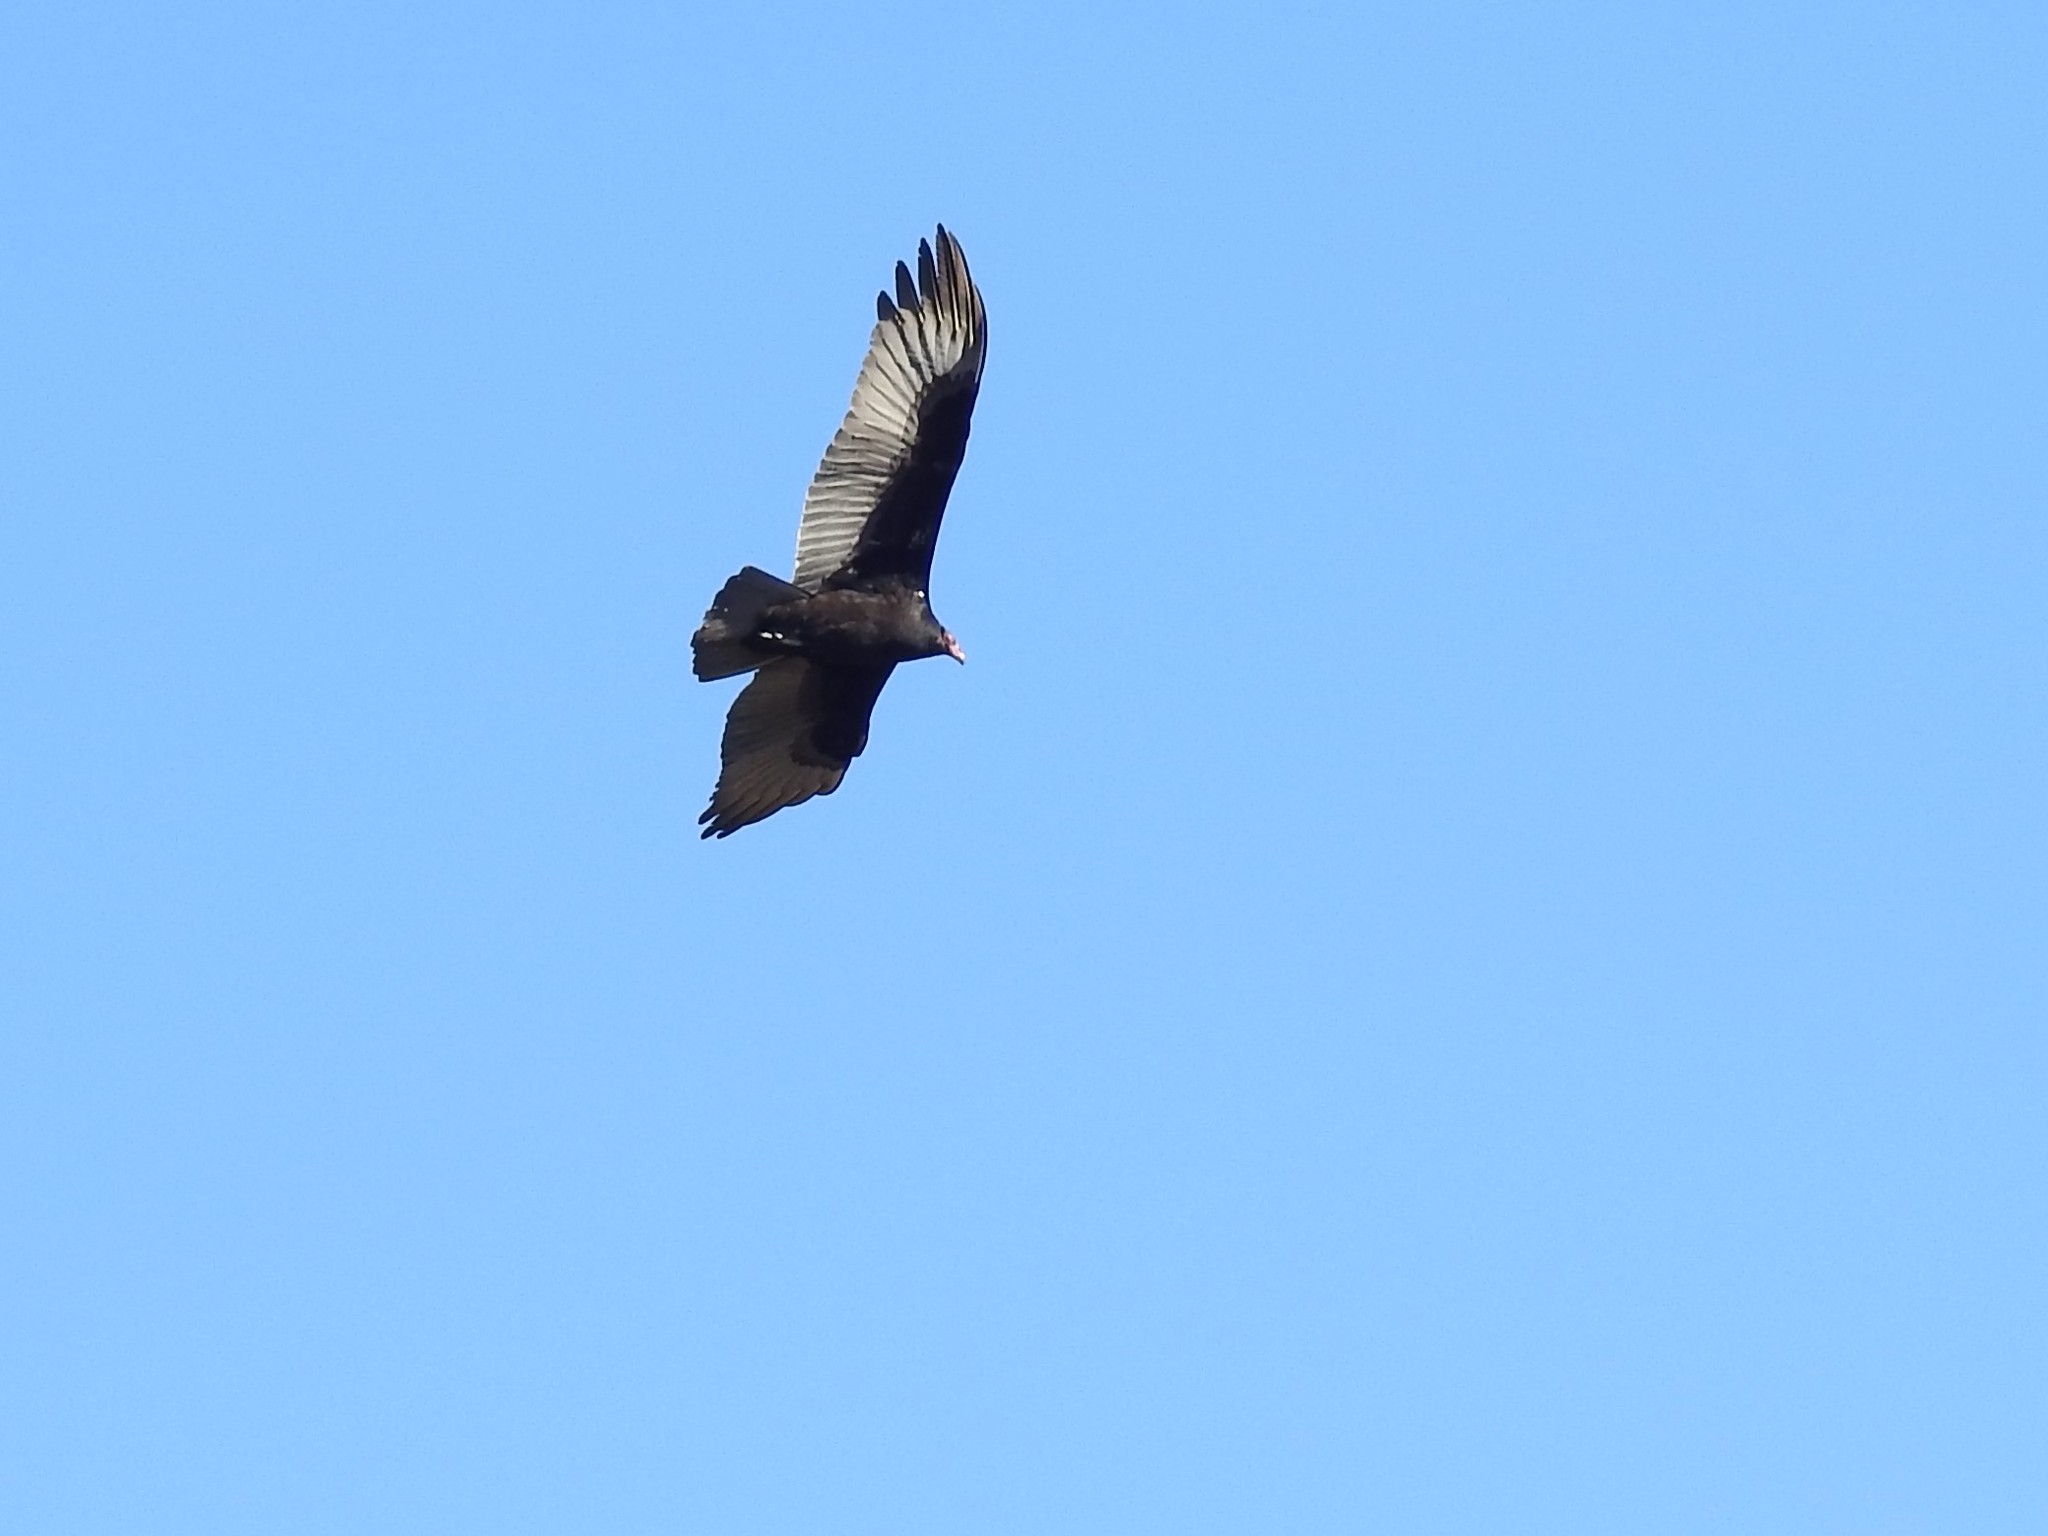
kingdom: Animalia
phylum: Chordata
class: Aves
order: Accipitriformes
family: Cathartidae
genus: Cathartes
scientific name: Cathartes aura
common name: Turkey vulture
